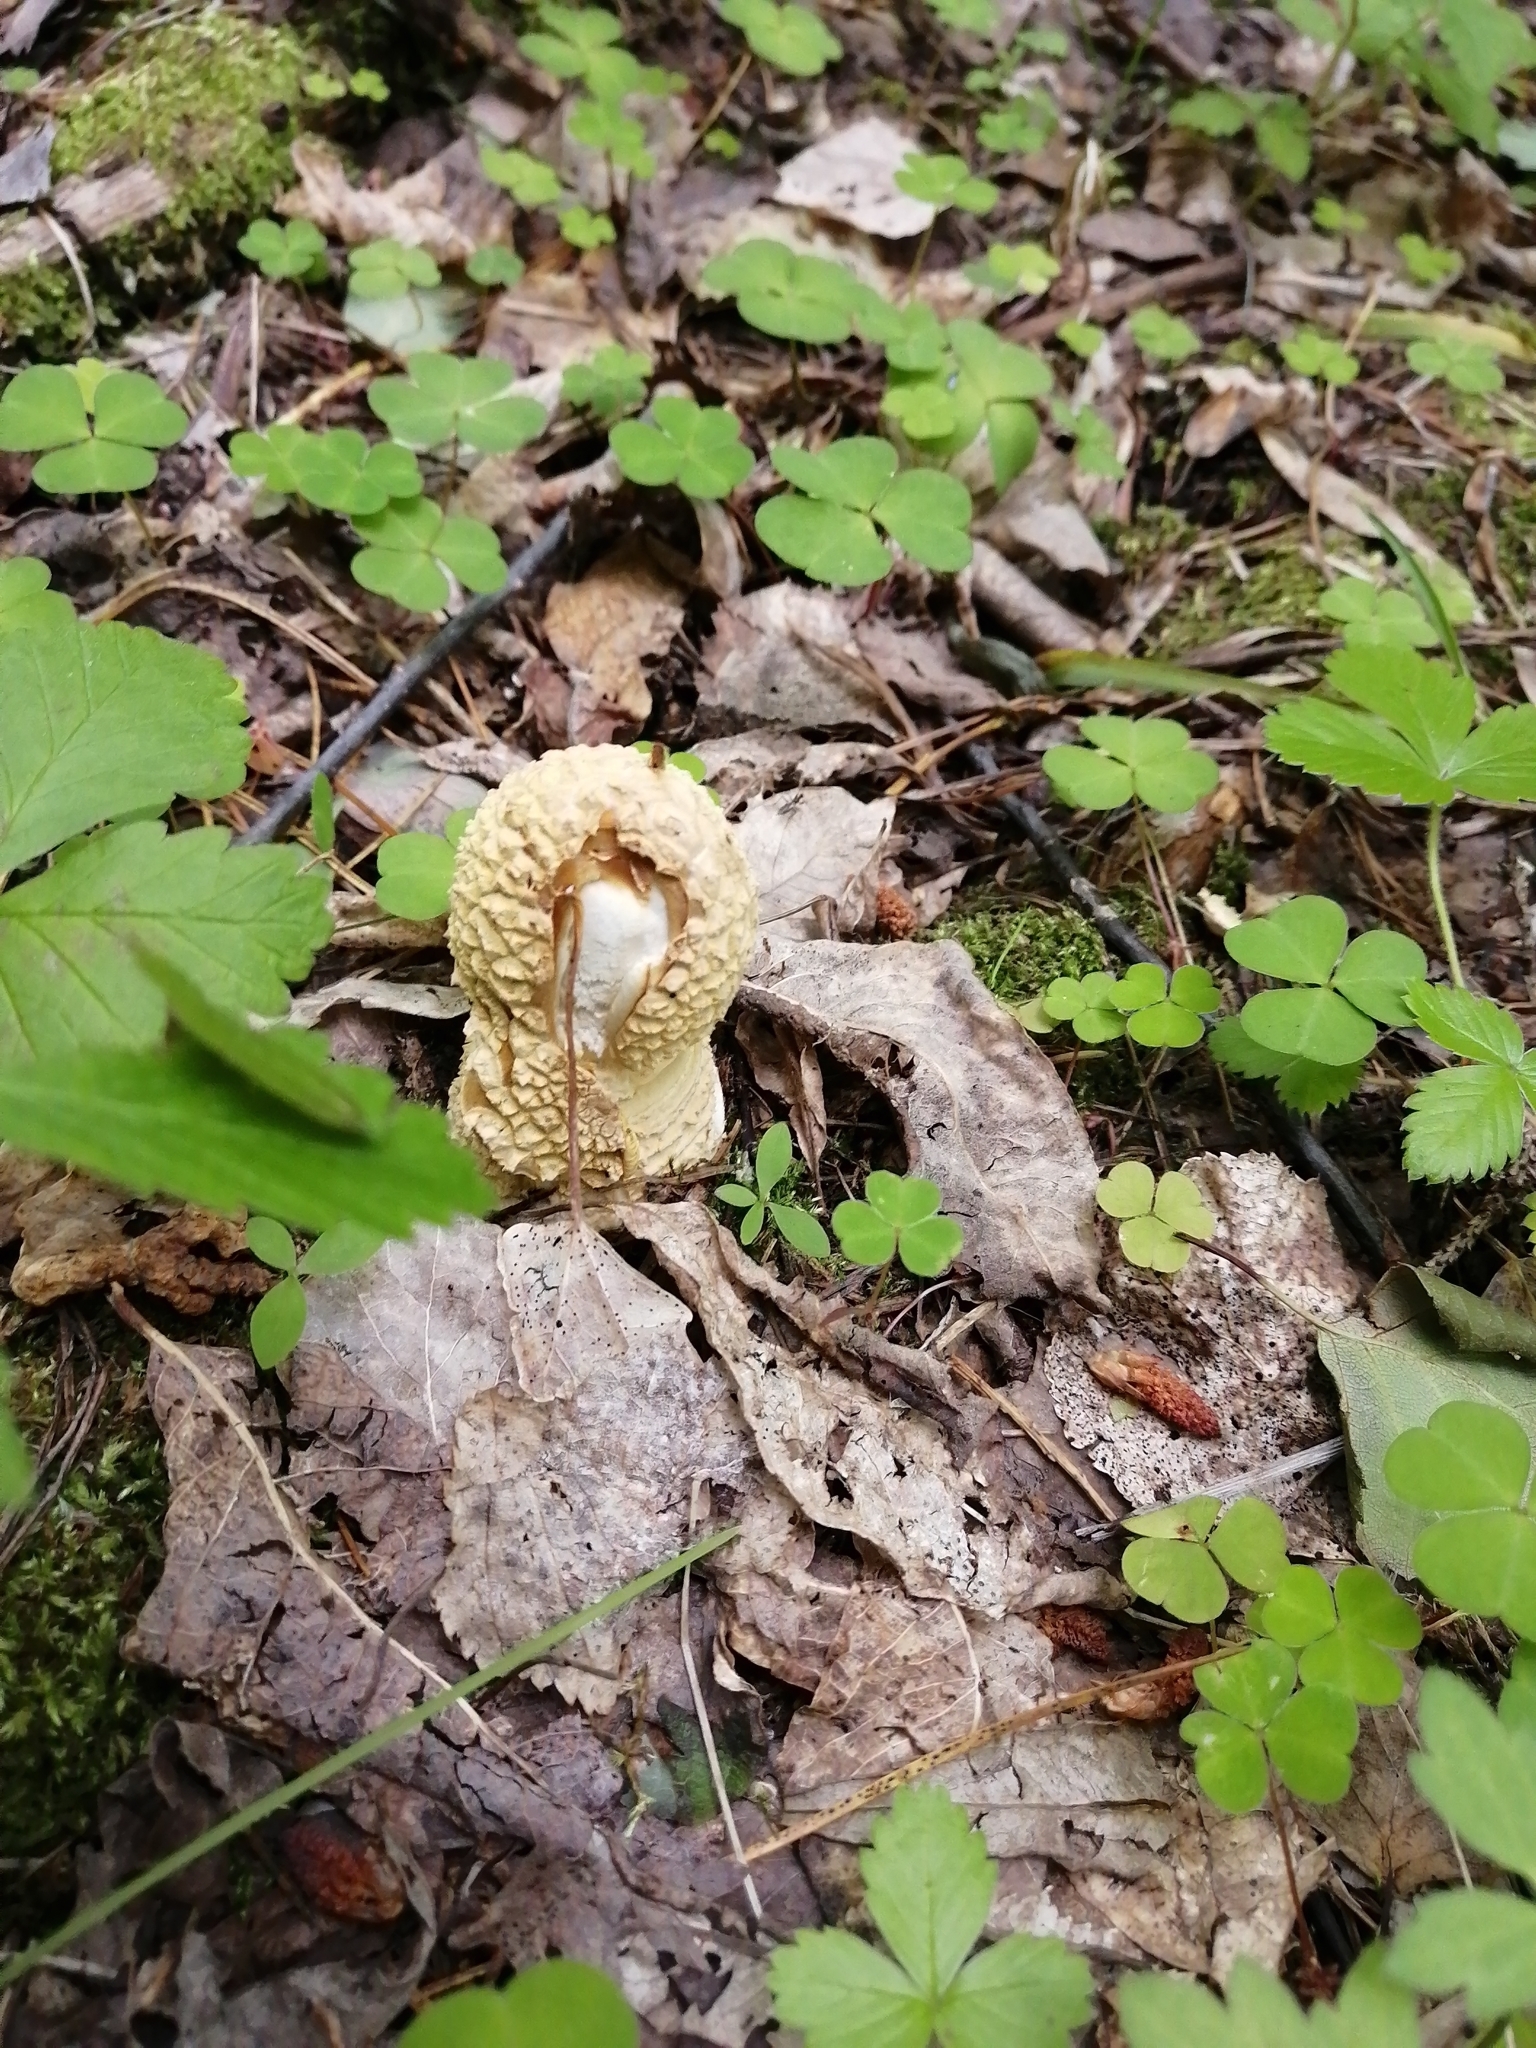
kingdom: Fungi
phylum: Basidiomycota
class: Agaricomycetes
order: Agaricales
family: Amanitaceae
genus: Amanita
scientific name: Amanita regalis
